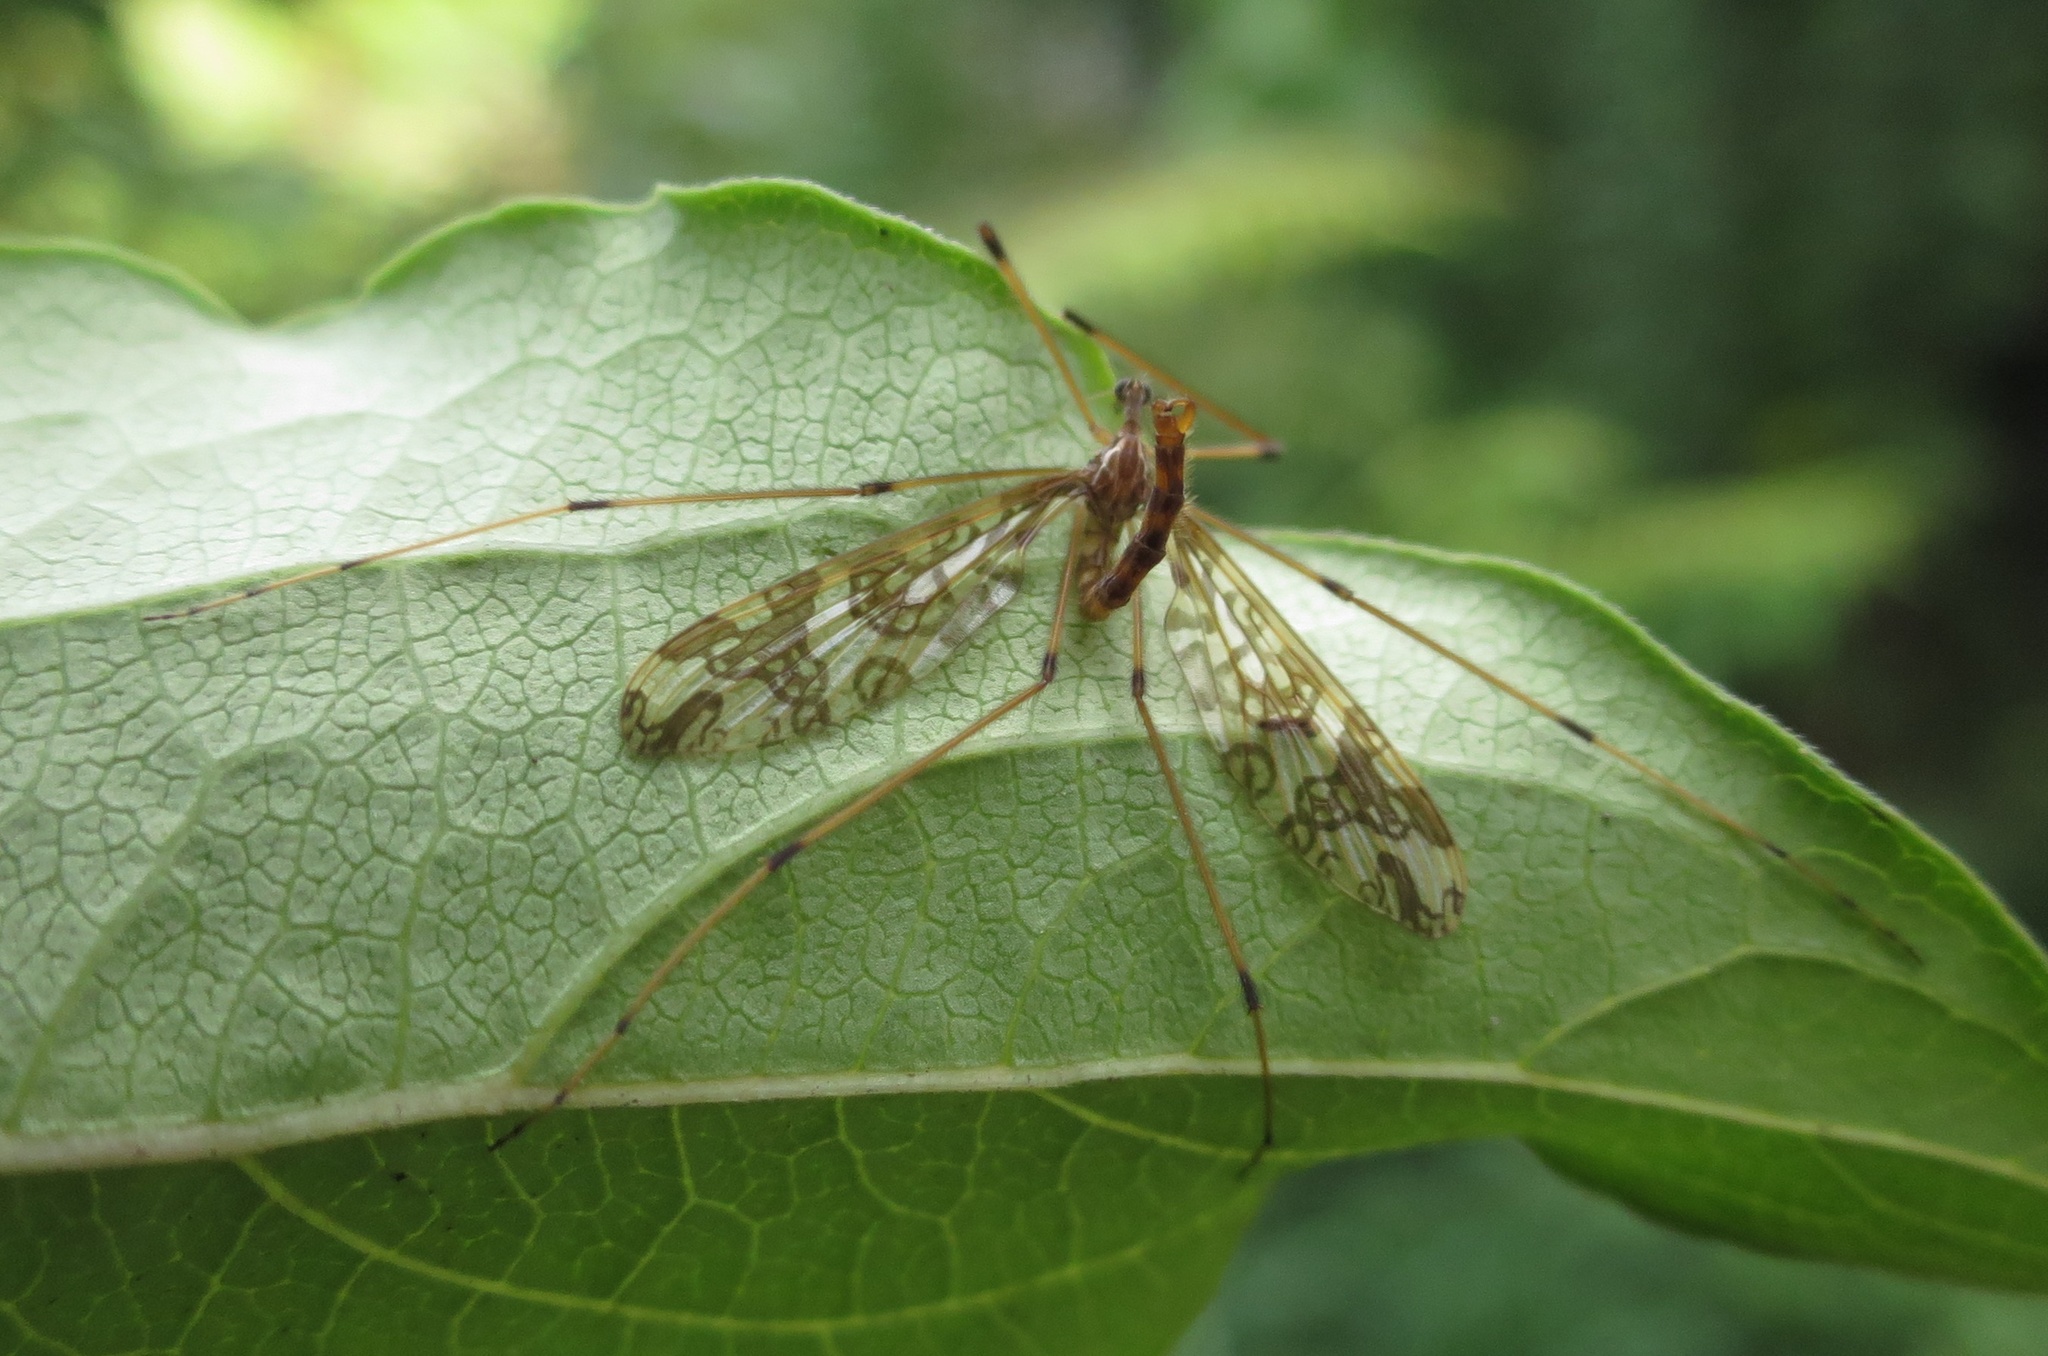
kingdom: Animalia
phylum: Arthropoda
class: Insecta
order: Diptera
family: Tanyderidae
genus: Tanyderus
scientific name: Tanyderus annuliferus
